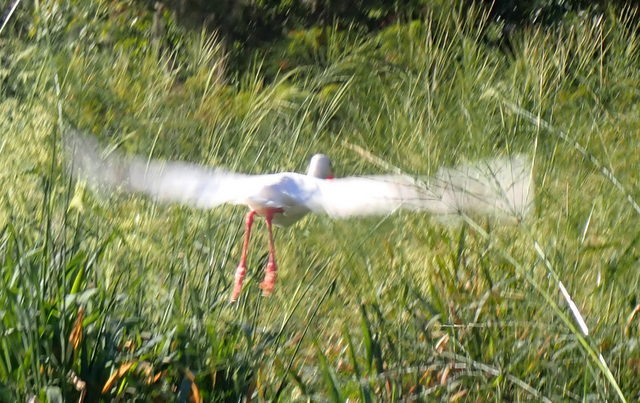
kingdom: Animalia
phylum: Chordata
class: Aves
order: Pelecaniformes
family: Threskiornithidae
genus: Eudocimus
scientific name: Eudocimus albus
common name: White ibis
